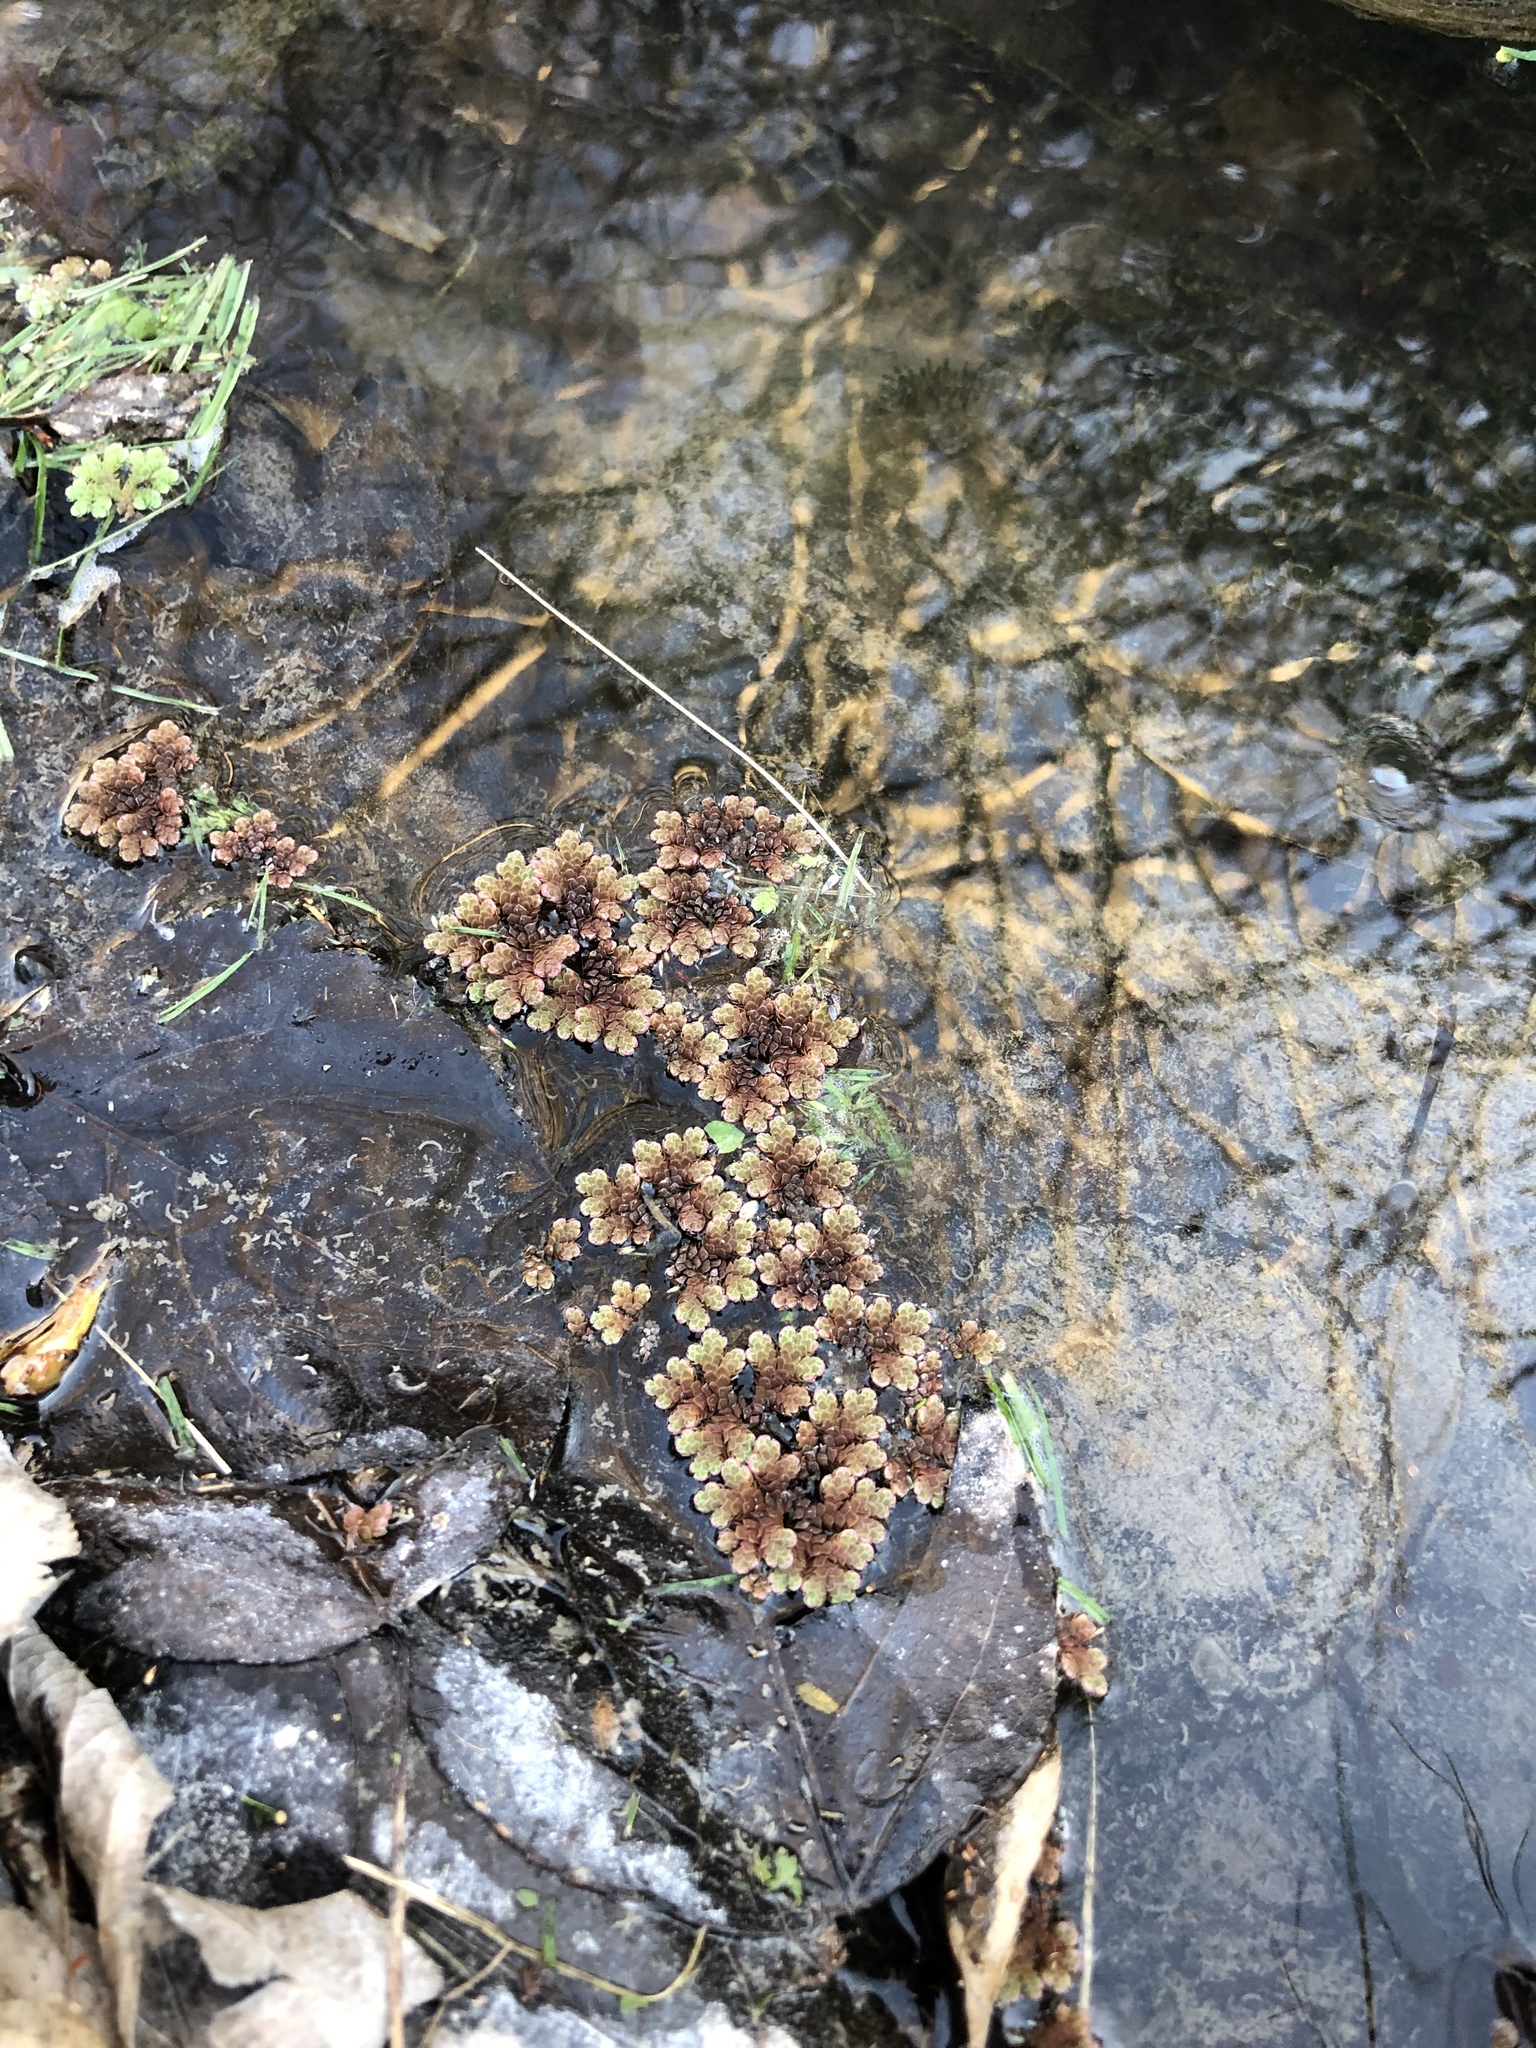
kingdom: Plantae
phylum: Tracheophyta
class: Polypodiopsida
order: Salviniales
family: Salviniaceae
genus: Azolla
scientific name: Azolla rubra
